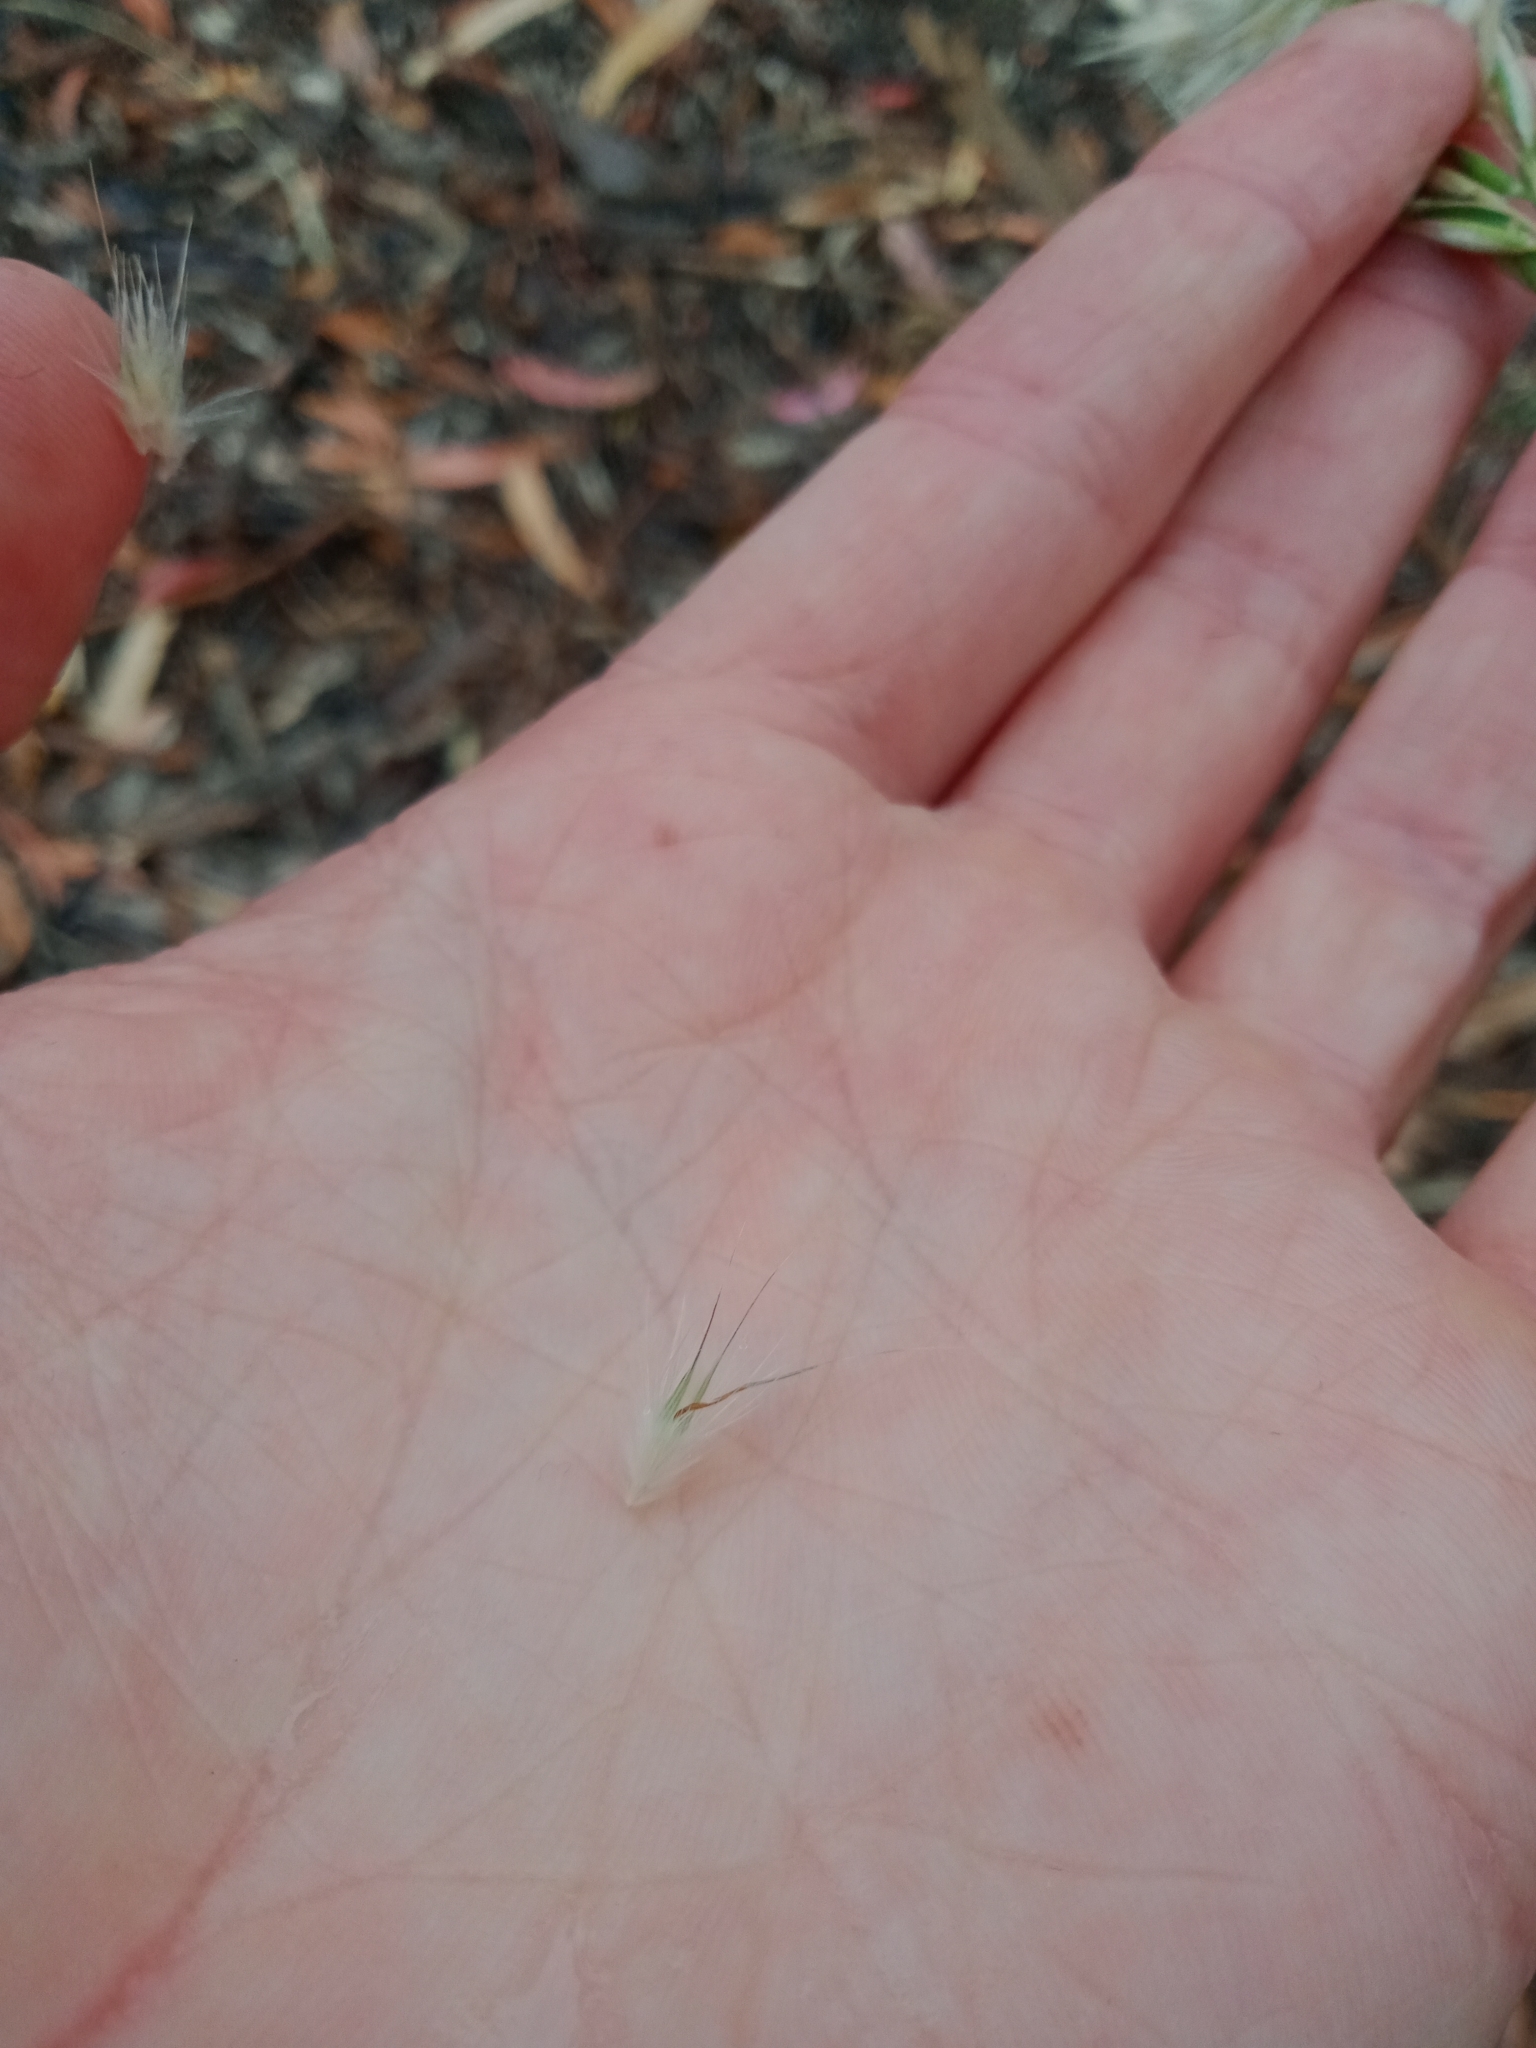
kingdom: Plantae
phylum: Tracheophyta
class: Liliopsida
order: Poales
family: Poaceae
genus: Rytidosperma
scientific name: Rytidosperma fulvum
